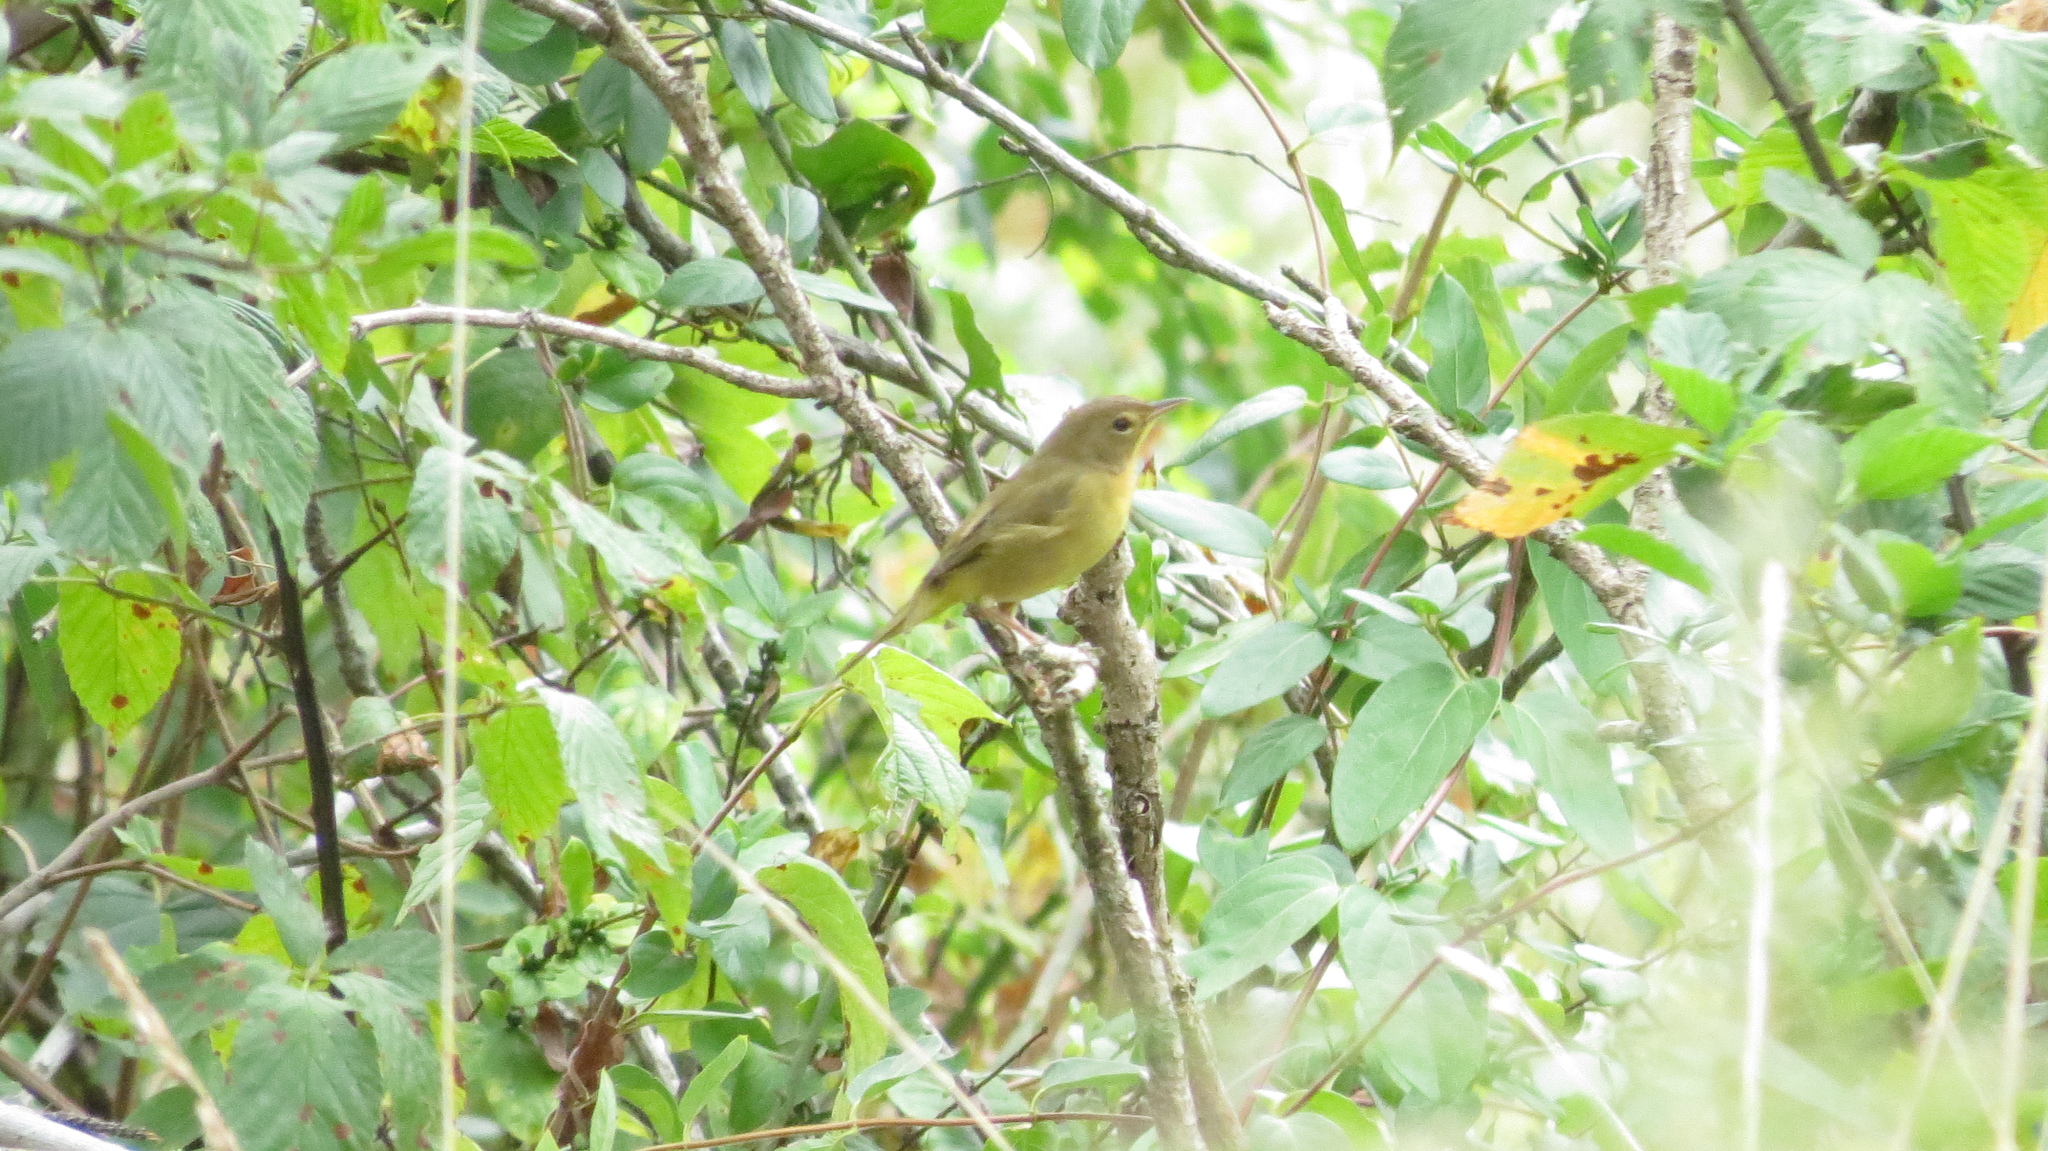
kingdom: Animalia
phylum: Chordata
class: Aves
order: Passeriformes
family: Parulidae
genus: Geothlypis
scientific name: Geothlypis trichas
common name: Common yellowthroat
